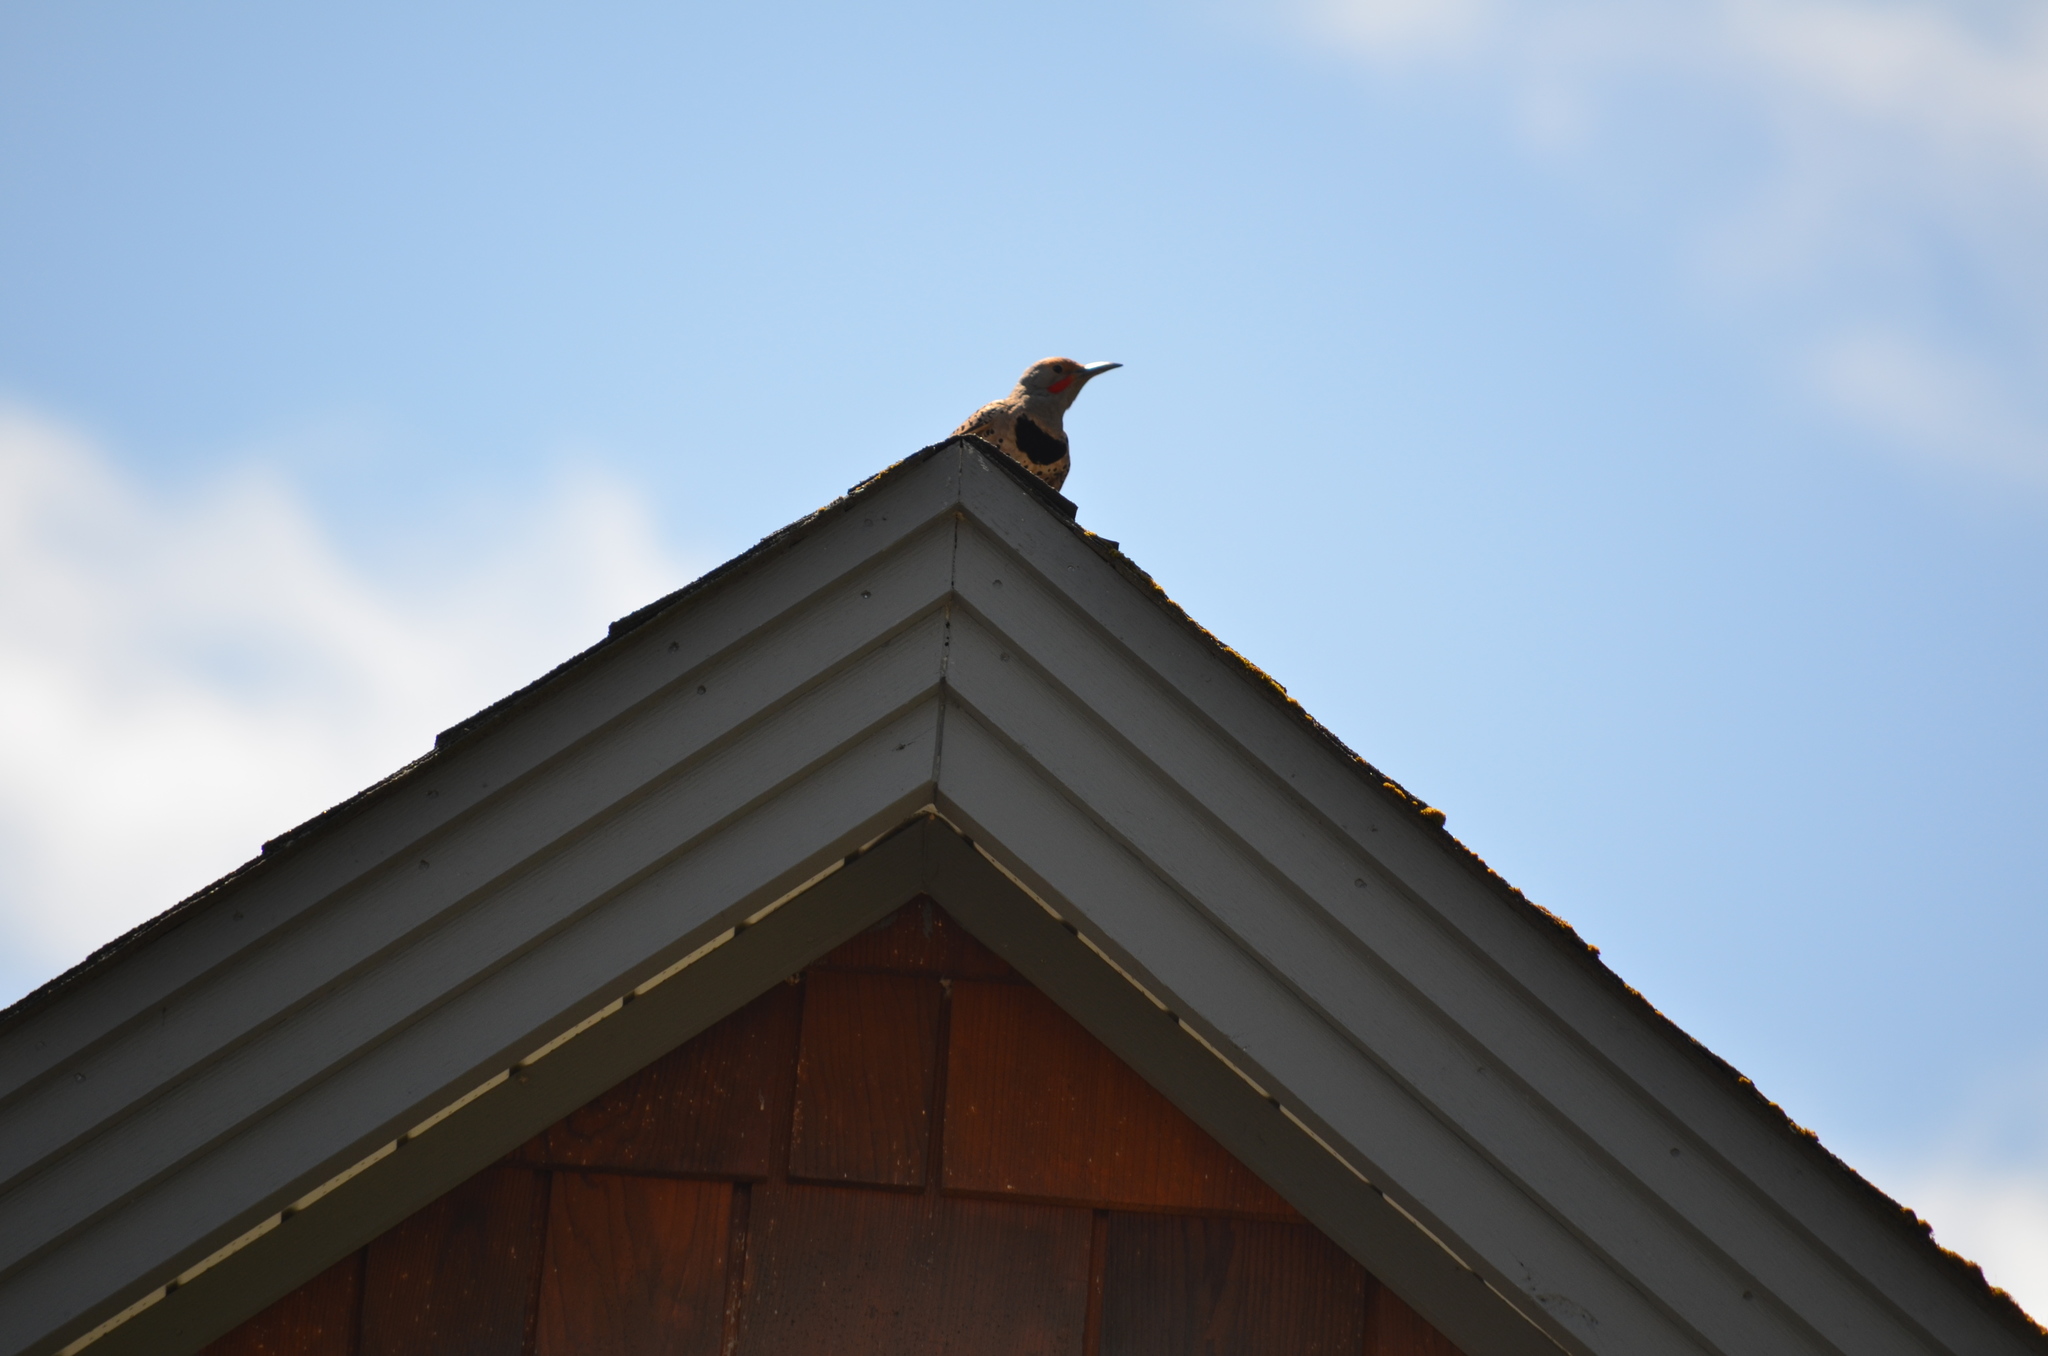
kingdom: Animalia
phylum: Chordata
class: Aves
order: Piciformes
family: Picidae
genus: Colaptes
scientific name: Colaptes auratus
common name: Northern flicker
